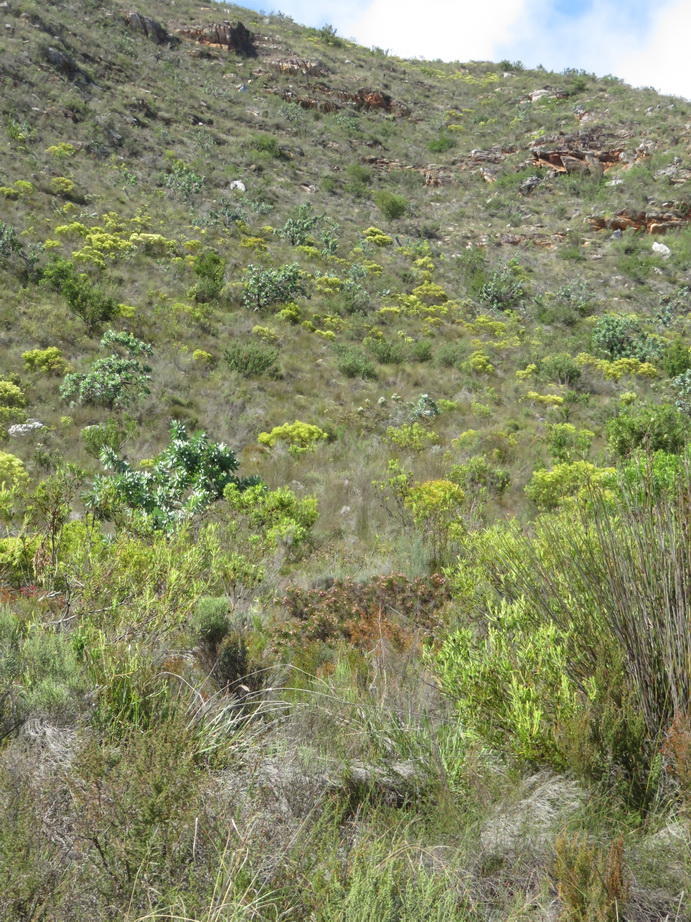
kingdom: Plantae
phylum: Tracheophyta
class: Magnoliopsida
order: Proteales
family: Proteaceae
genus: Serruria
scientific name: Serruria fasciflora
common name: Common pin spiderhead
